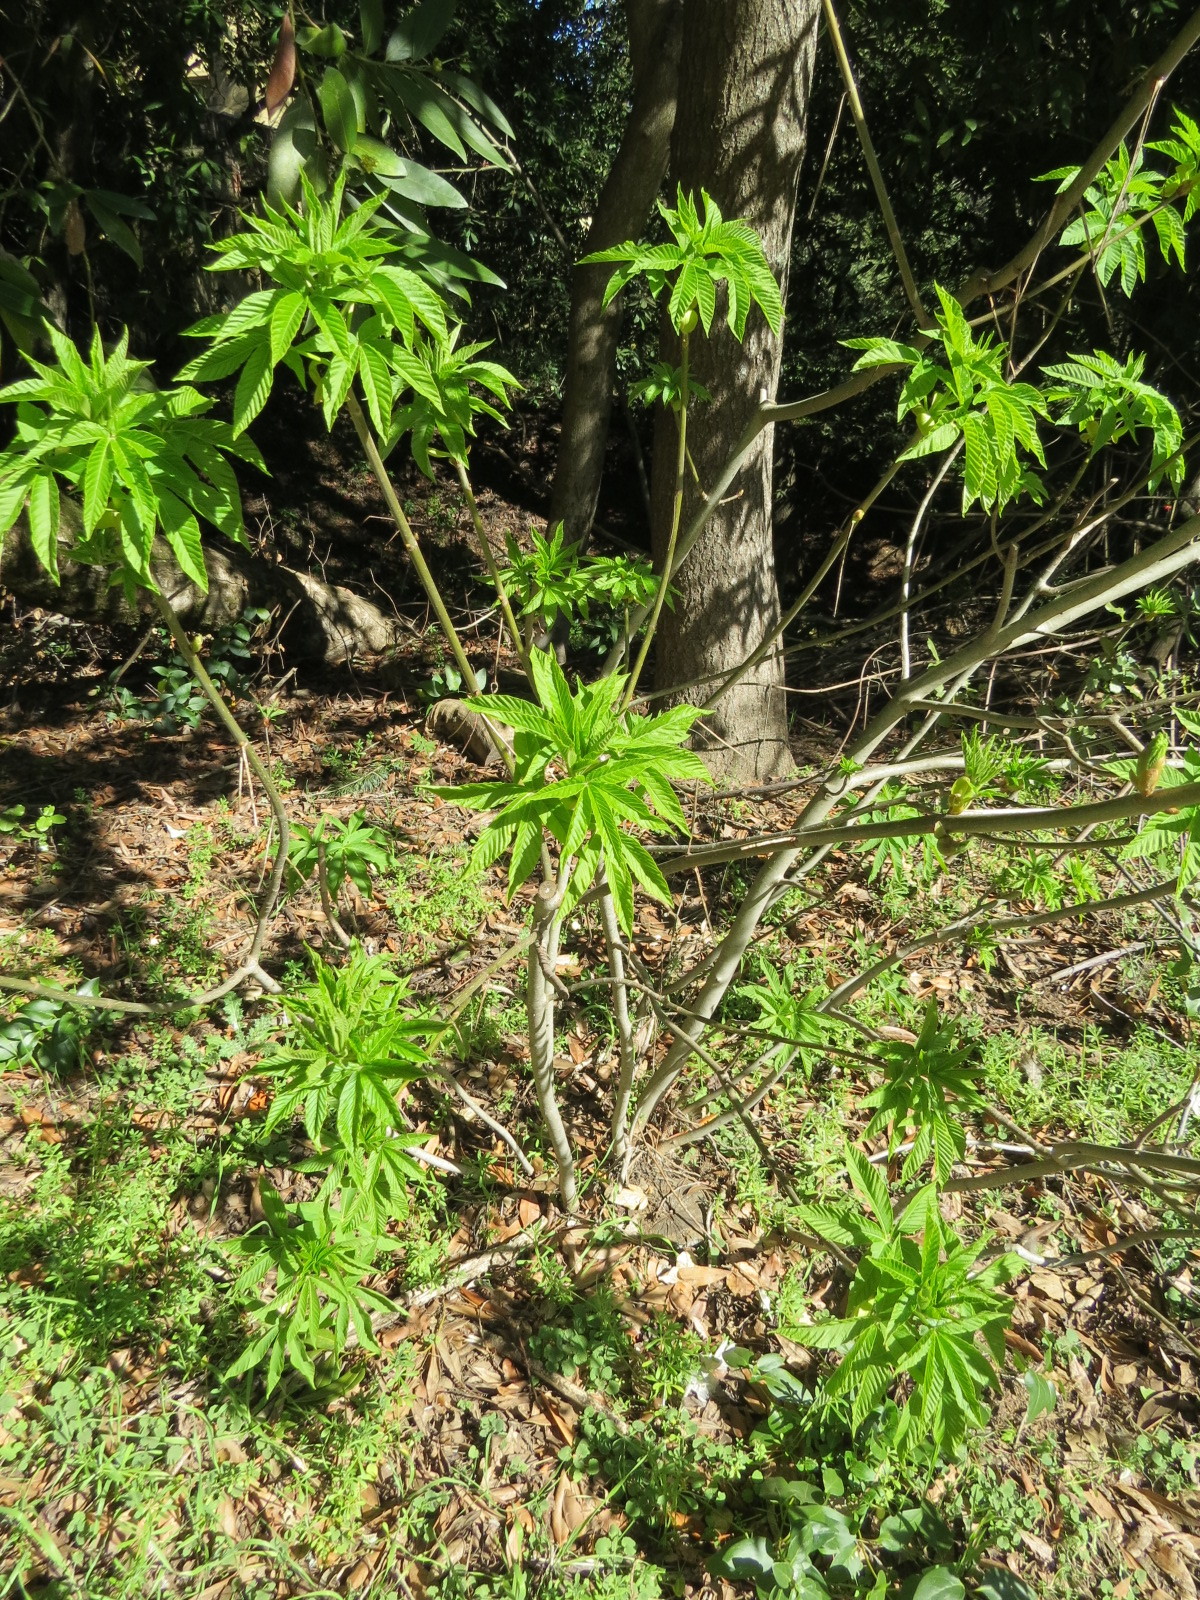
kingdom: Plantae
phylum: Tracheophyta
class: Magnoliopsida
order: Sapindales
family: Sapindaceae
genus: Aesculus
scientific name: Aesculus californica
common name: California buckeye
